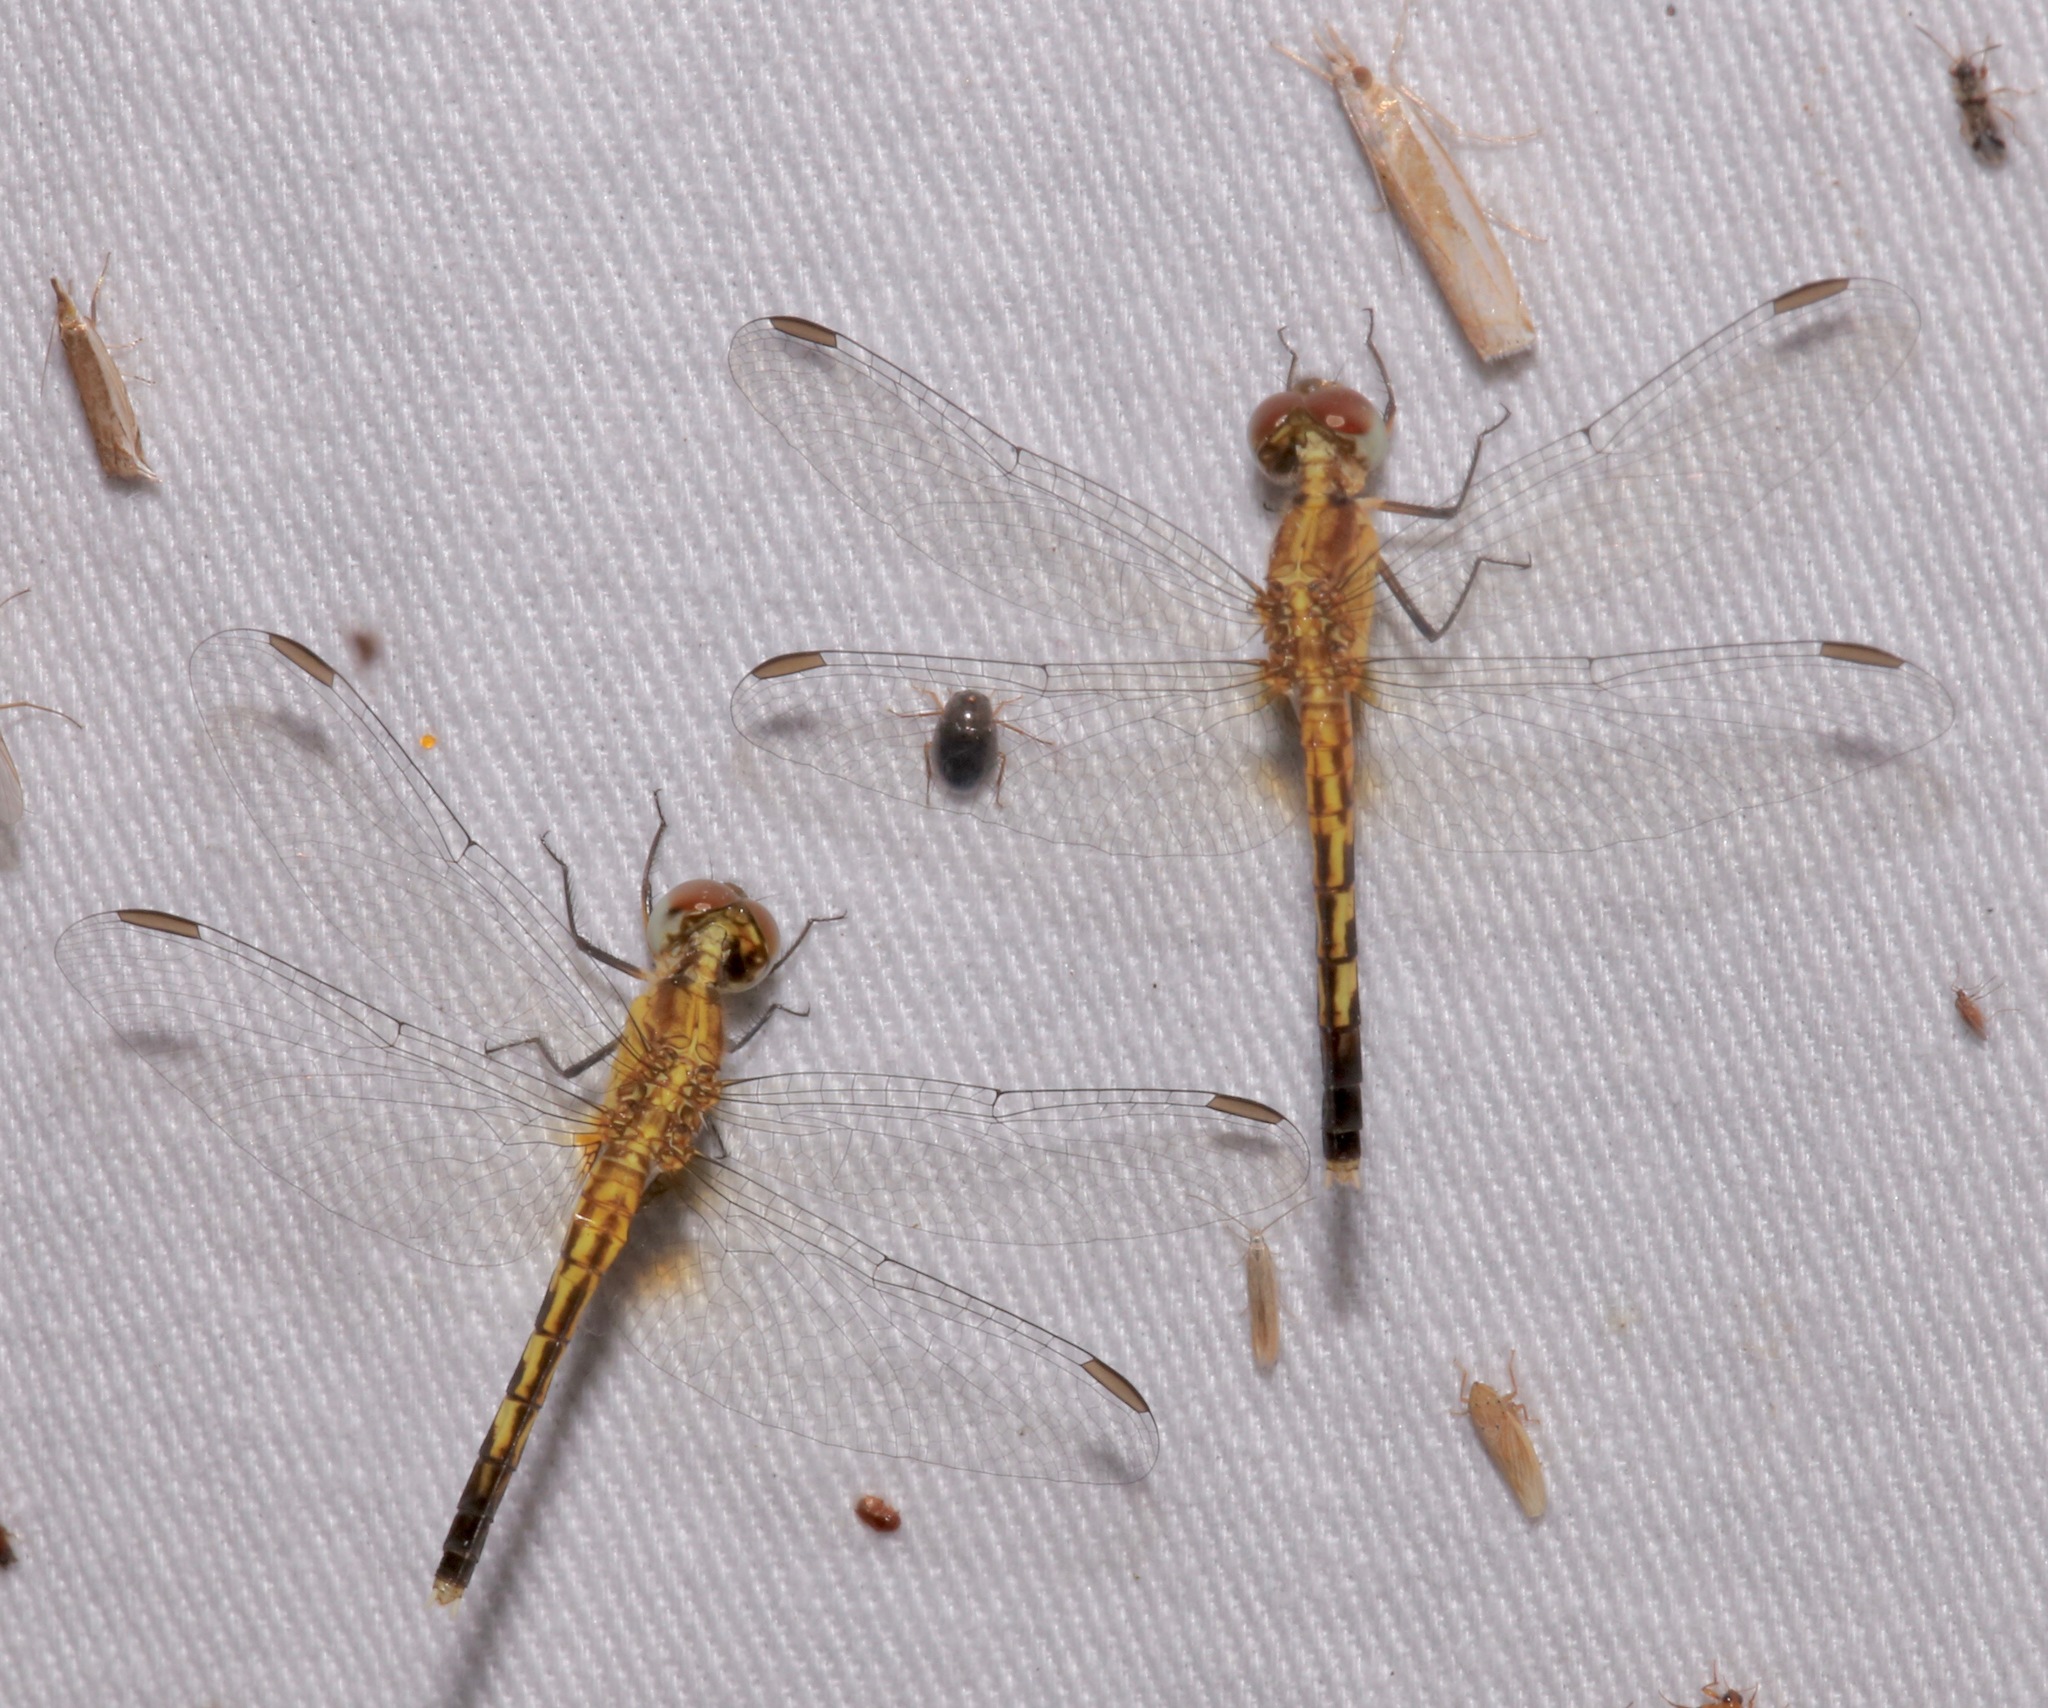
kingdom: Animalia
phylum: Arthropoda
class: Insecta
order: Odonata
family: Libellulidae
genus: Erythrodiplax
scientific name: Erythrodiplax minuscula
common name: Little blue dragonlet
